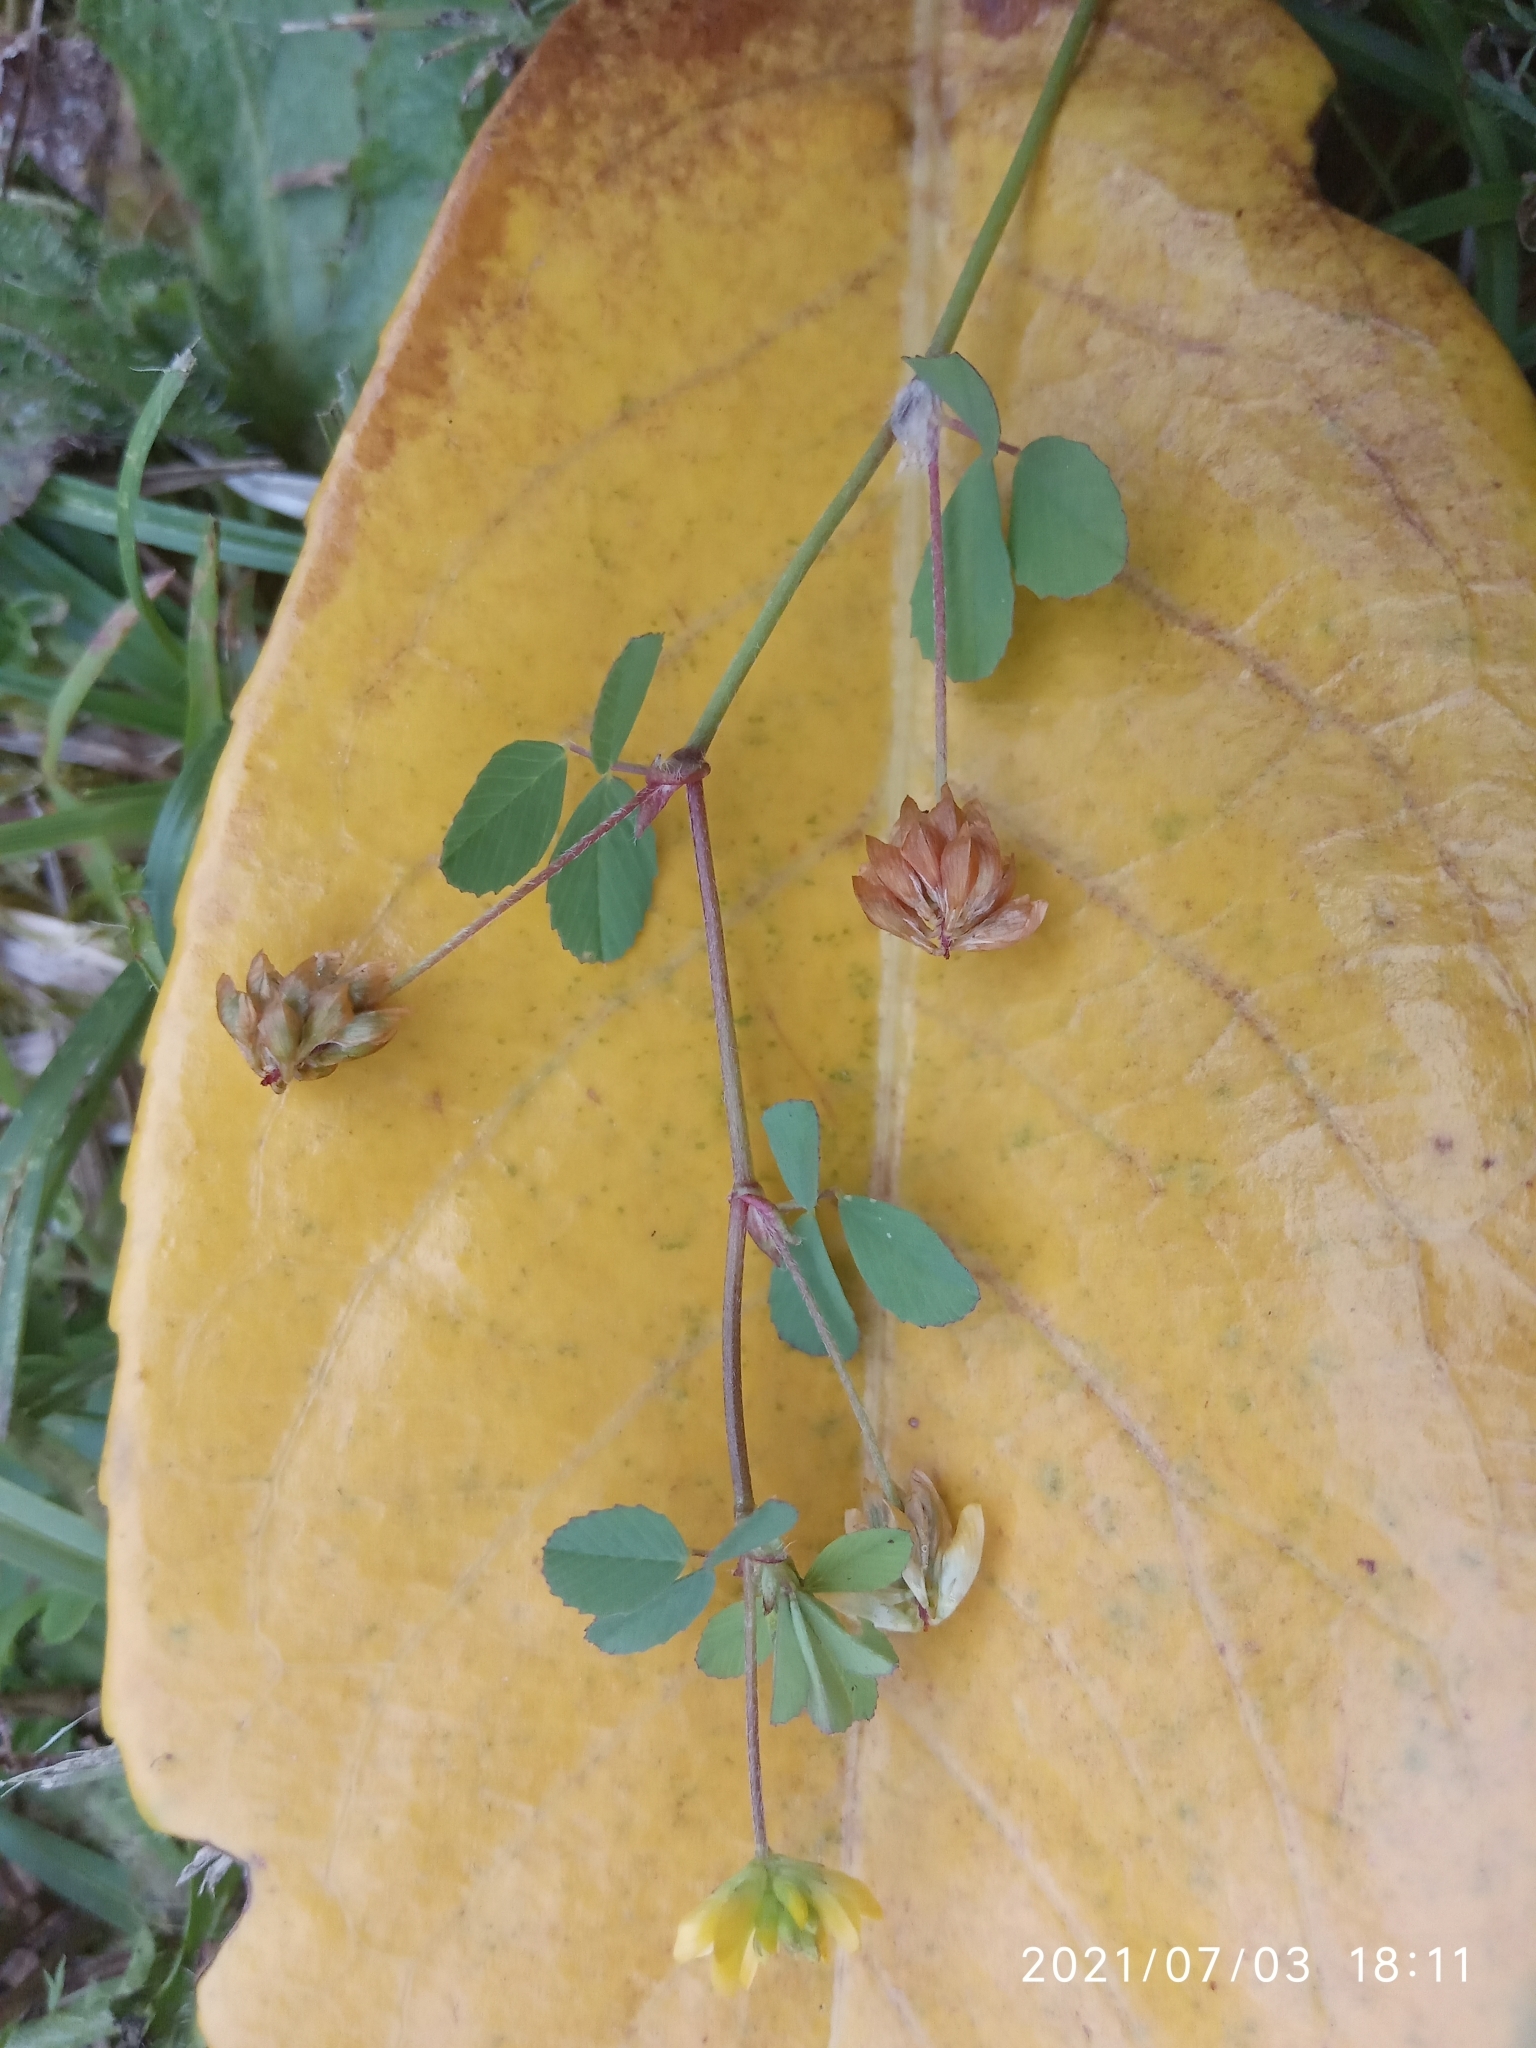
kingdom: Plantae
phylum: Tracheophyta
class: Magnoliopsida
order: Fabales
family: Fabaceae
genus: Trifolium
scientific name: Trifolium dubium
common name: Suckling clover
